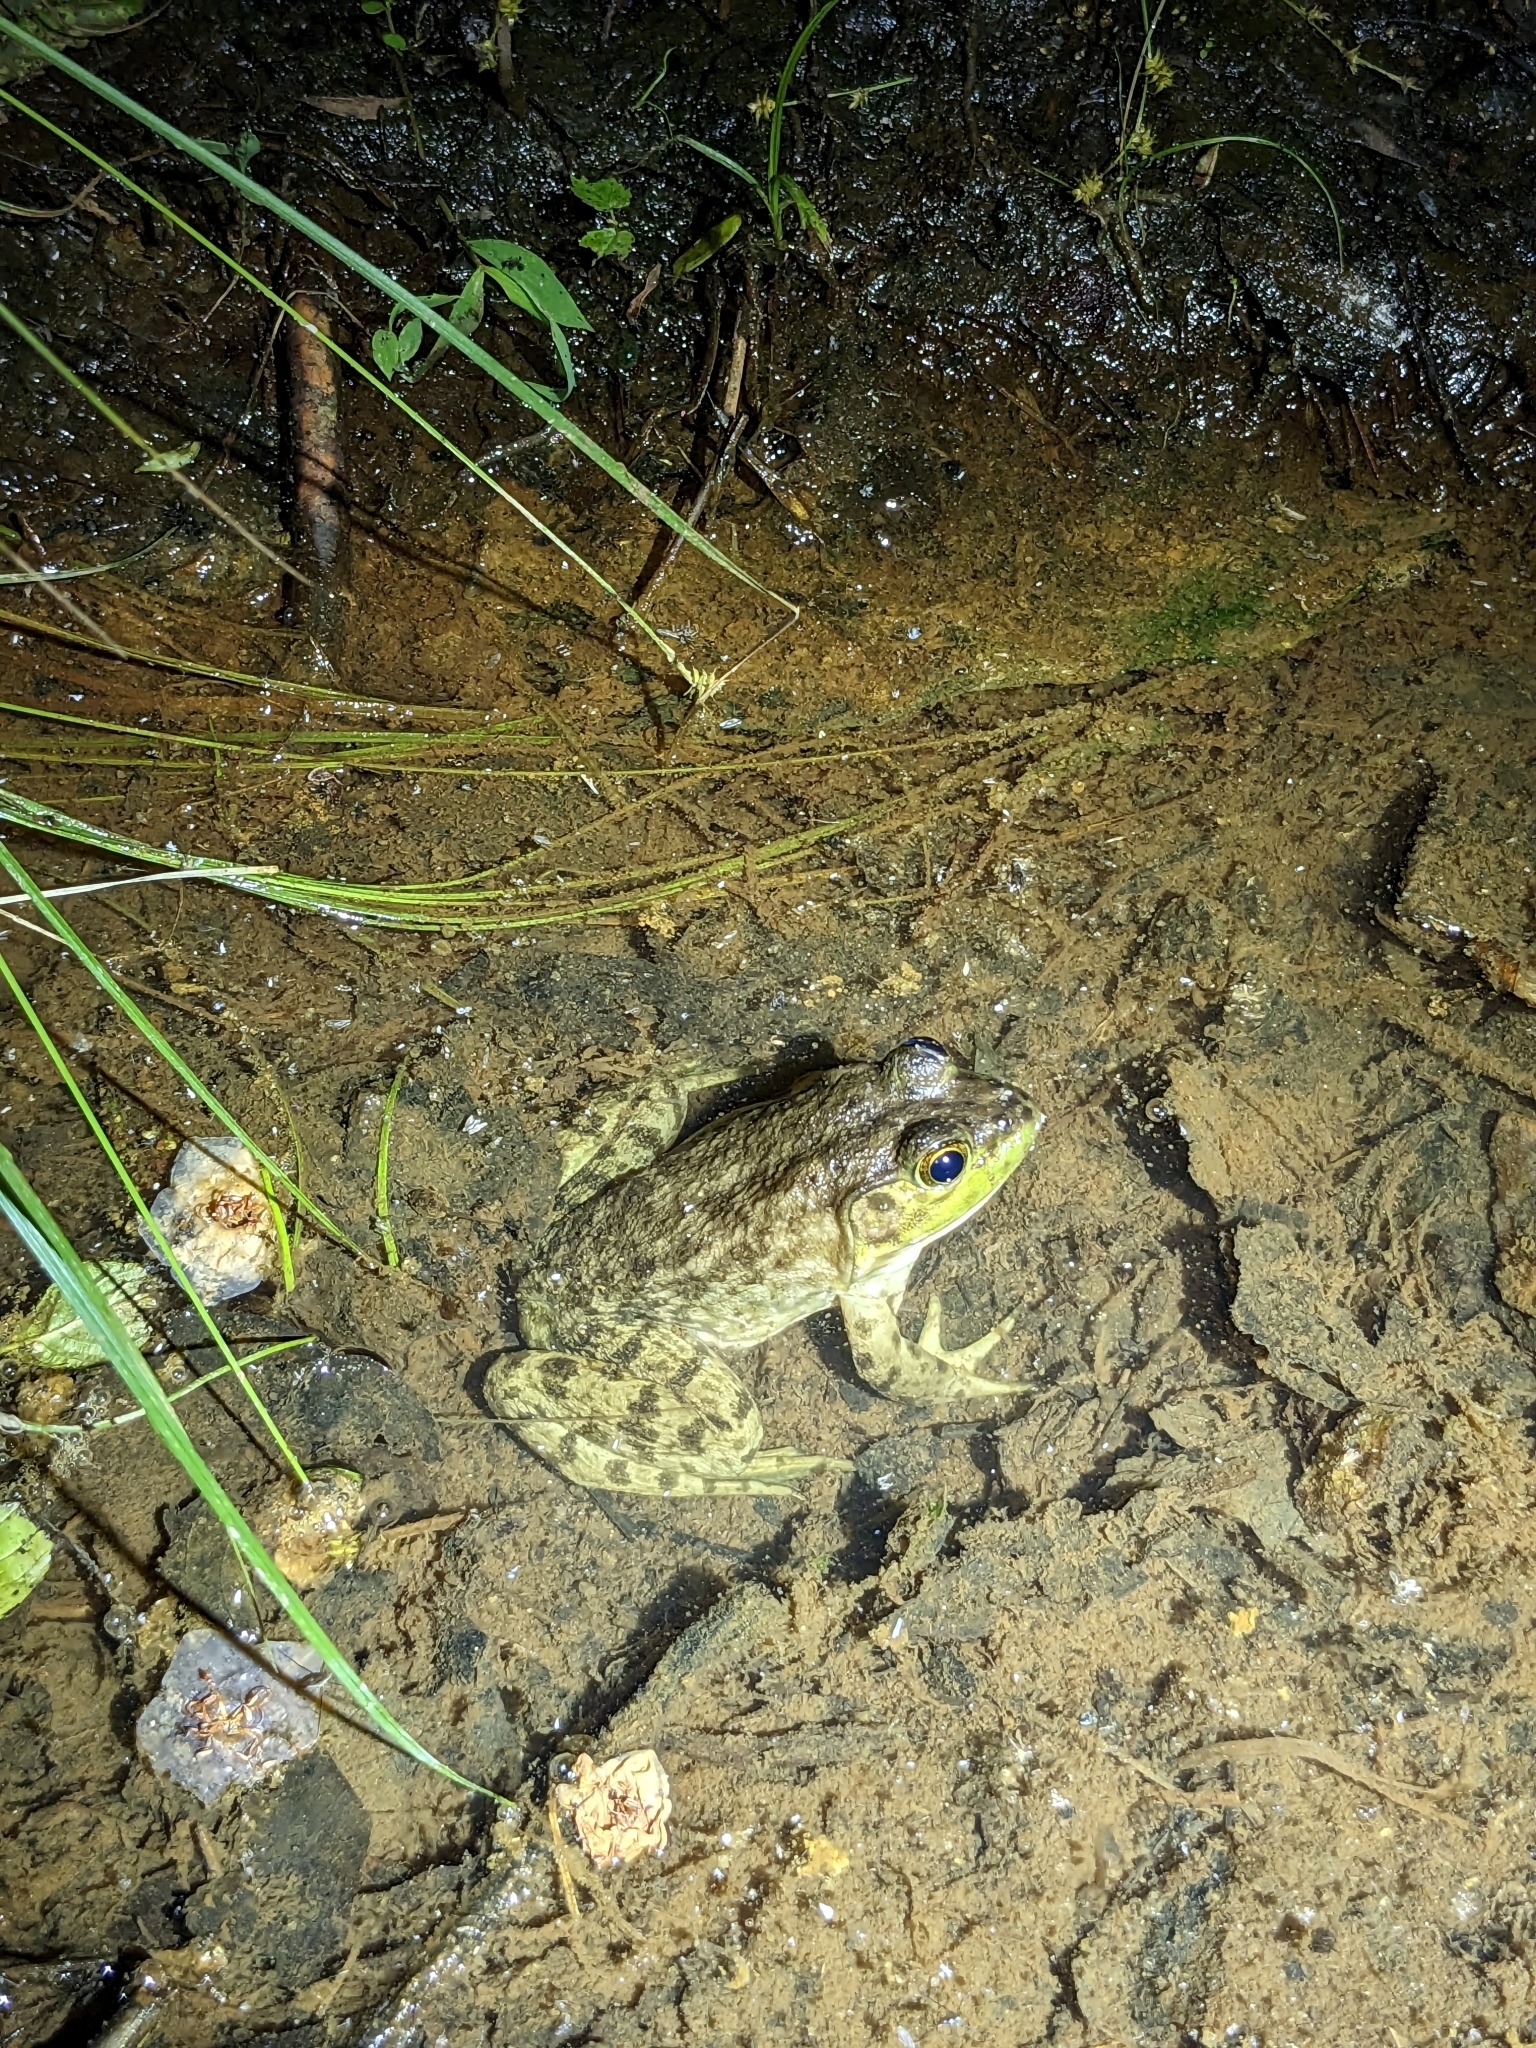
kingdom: Animalia
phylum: Chordata
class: Amphibia
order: Anura
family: Ranidae
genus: Lithobates
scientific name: Lithobates catesbeianus
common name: American bullfrog
